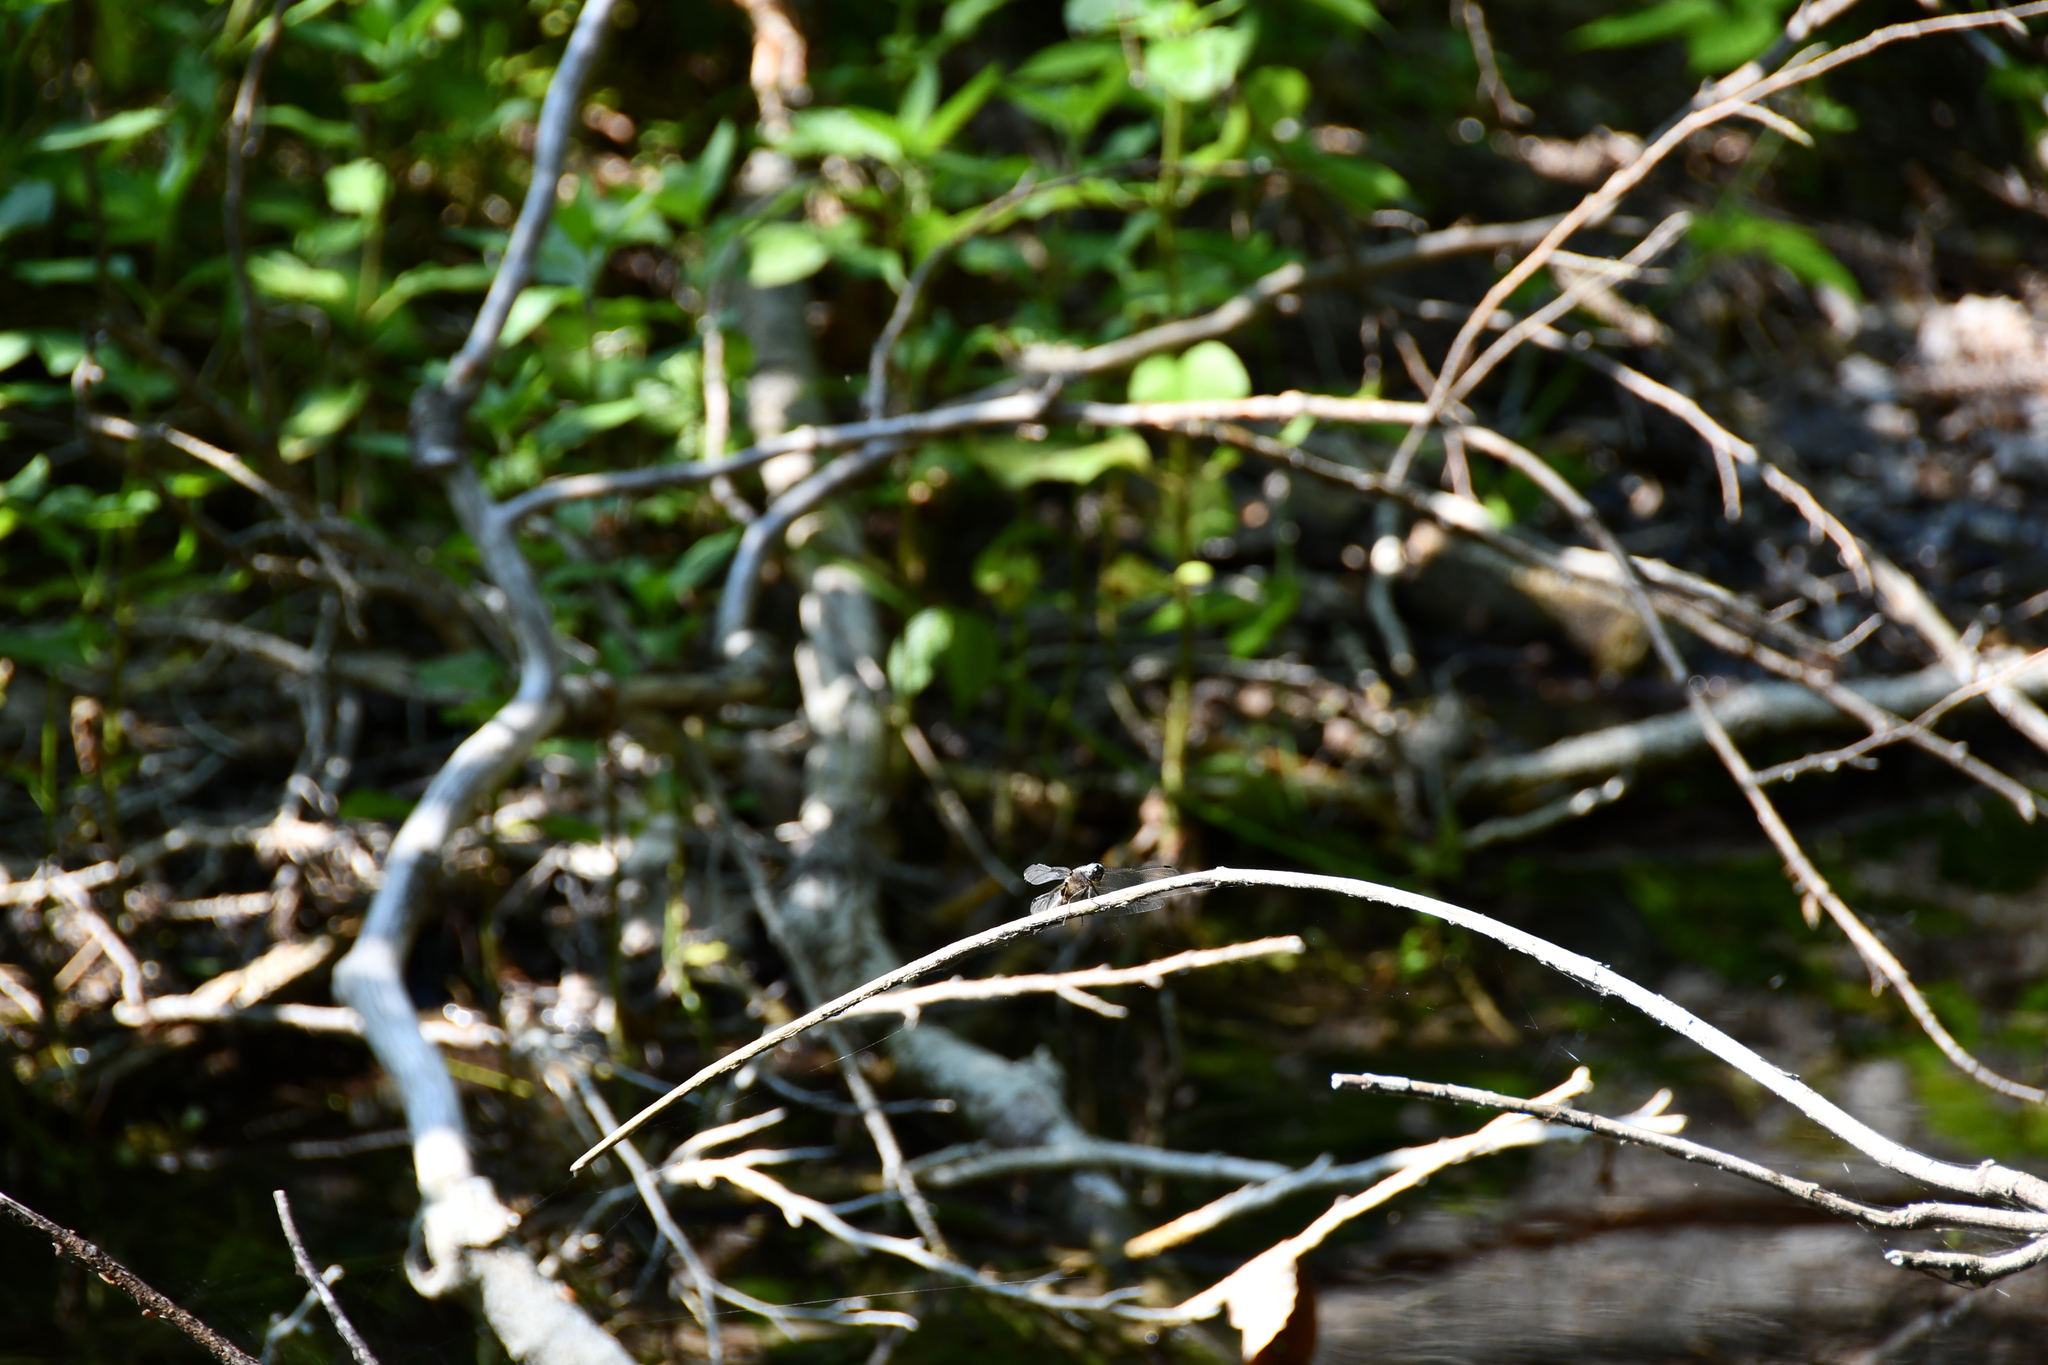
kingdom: Animalia
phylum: Arthropoda
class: Insecta
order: Odonata
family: Libellulidae
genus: Libellula
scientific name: Libellula fulva
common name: Blue chaser
